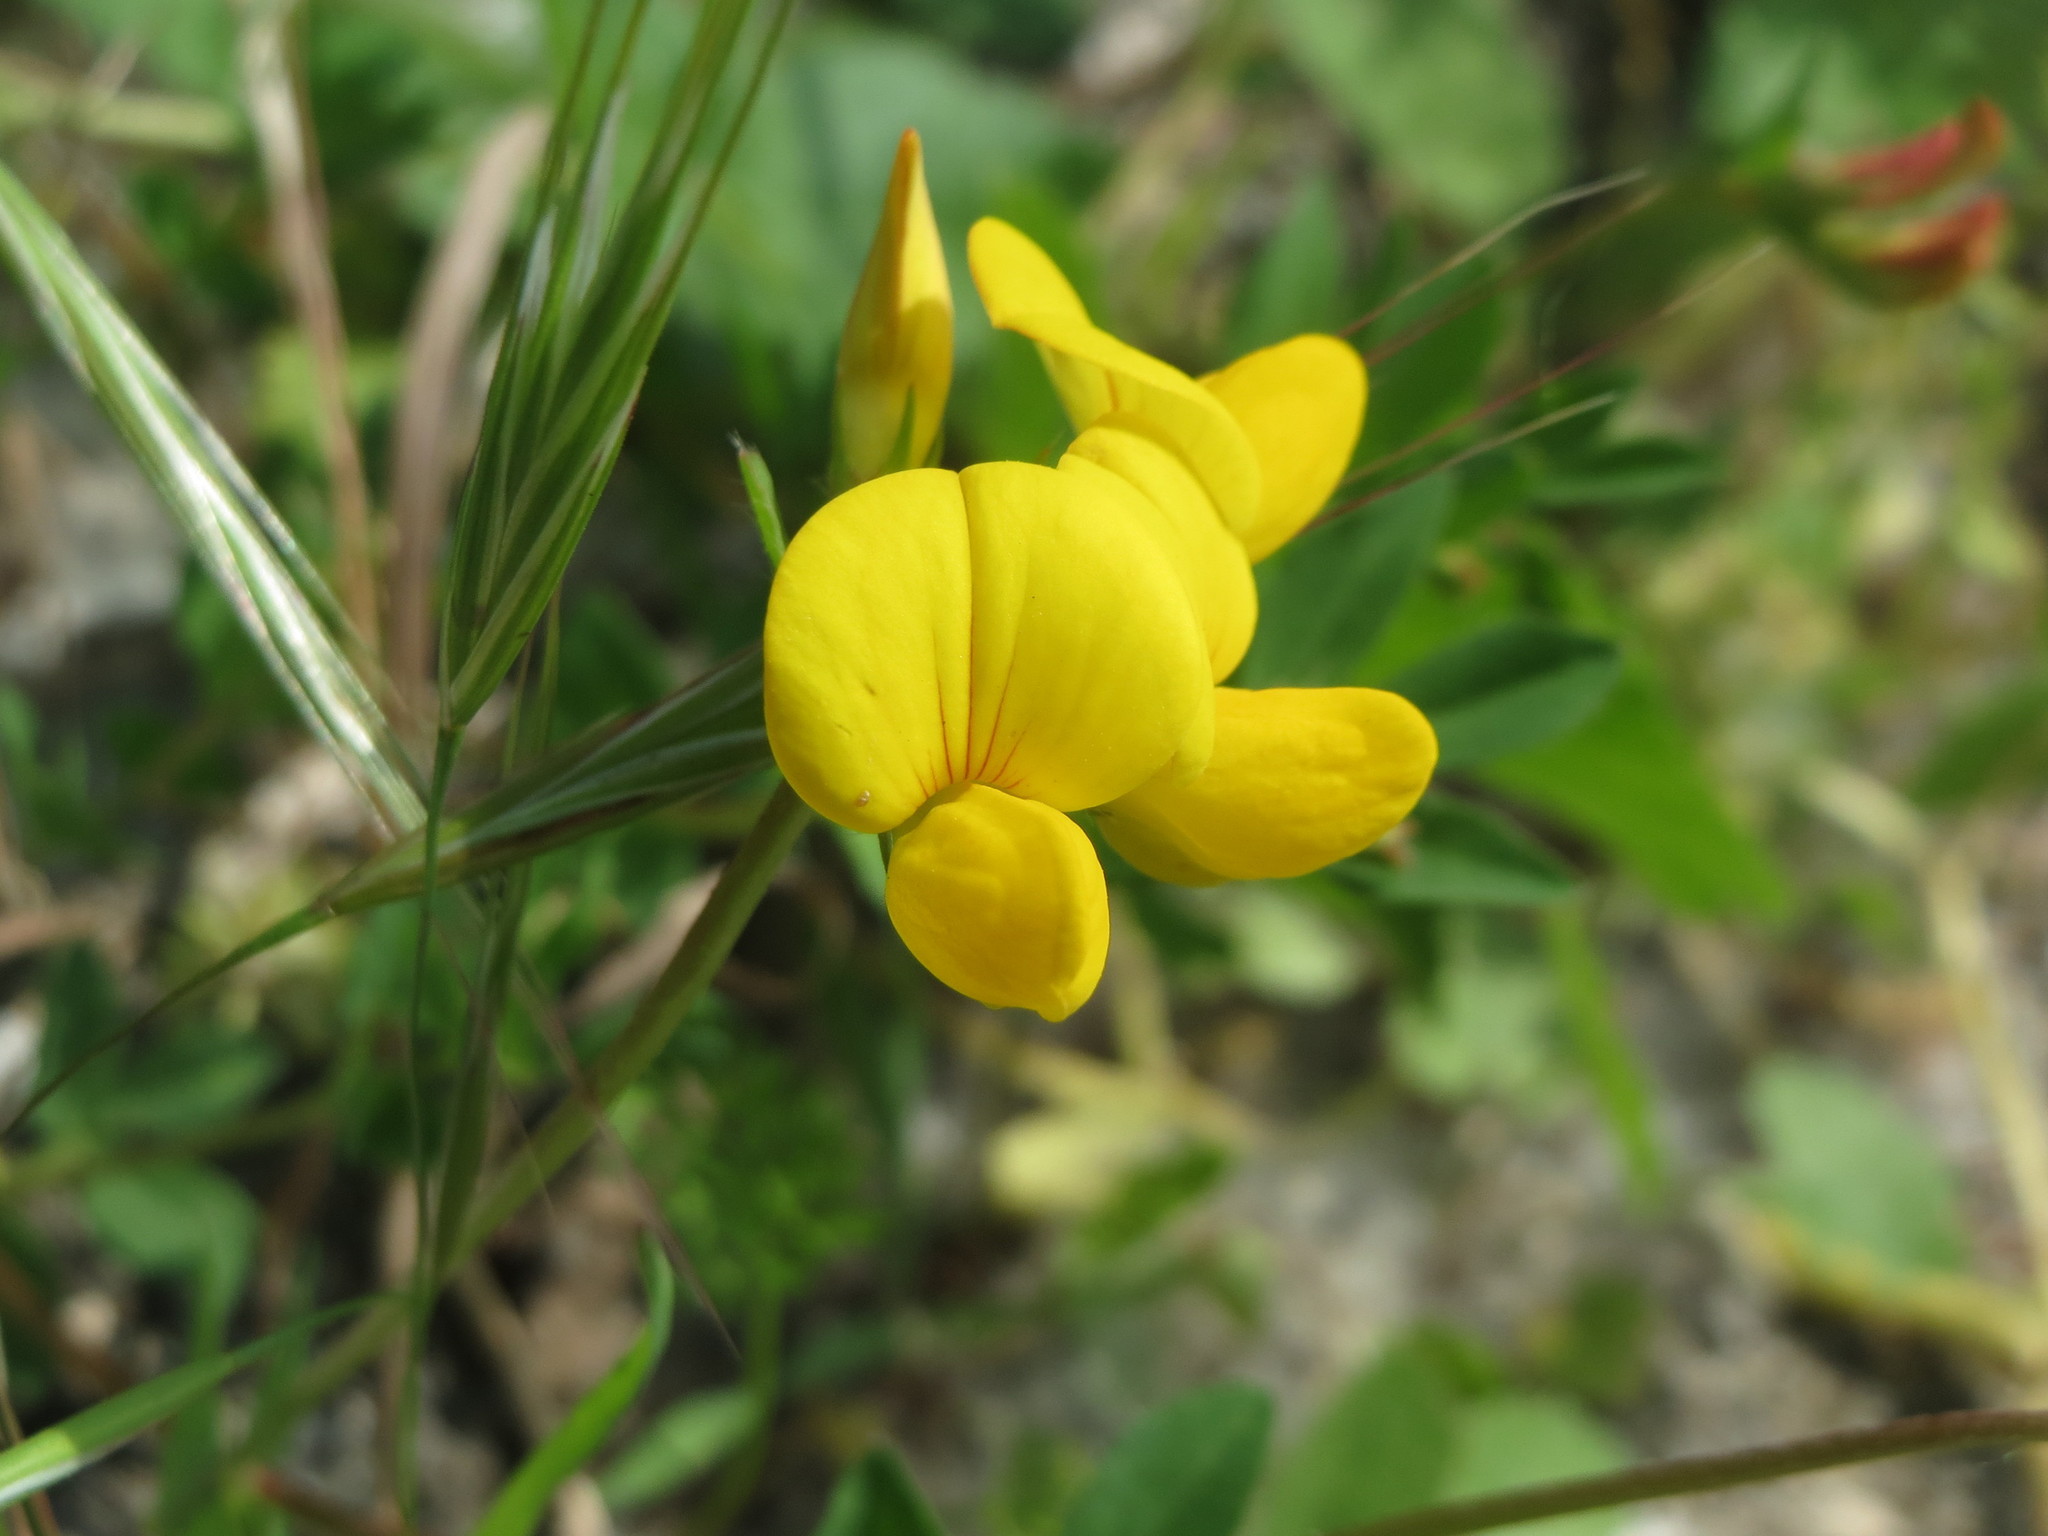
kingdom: Plantae
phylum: Tracheophyta
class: Magnoliopsida
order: Fabales
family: Fabaceae
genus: Lotus
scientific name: Lotus corniculatus
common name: Common bird's-foot-trefoil
